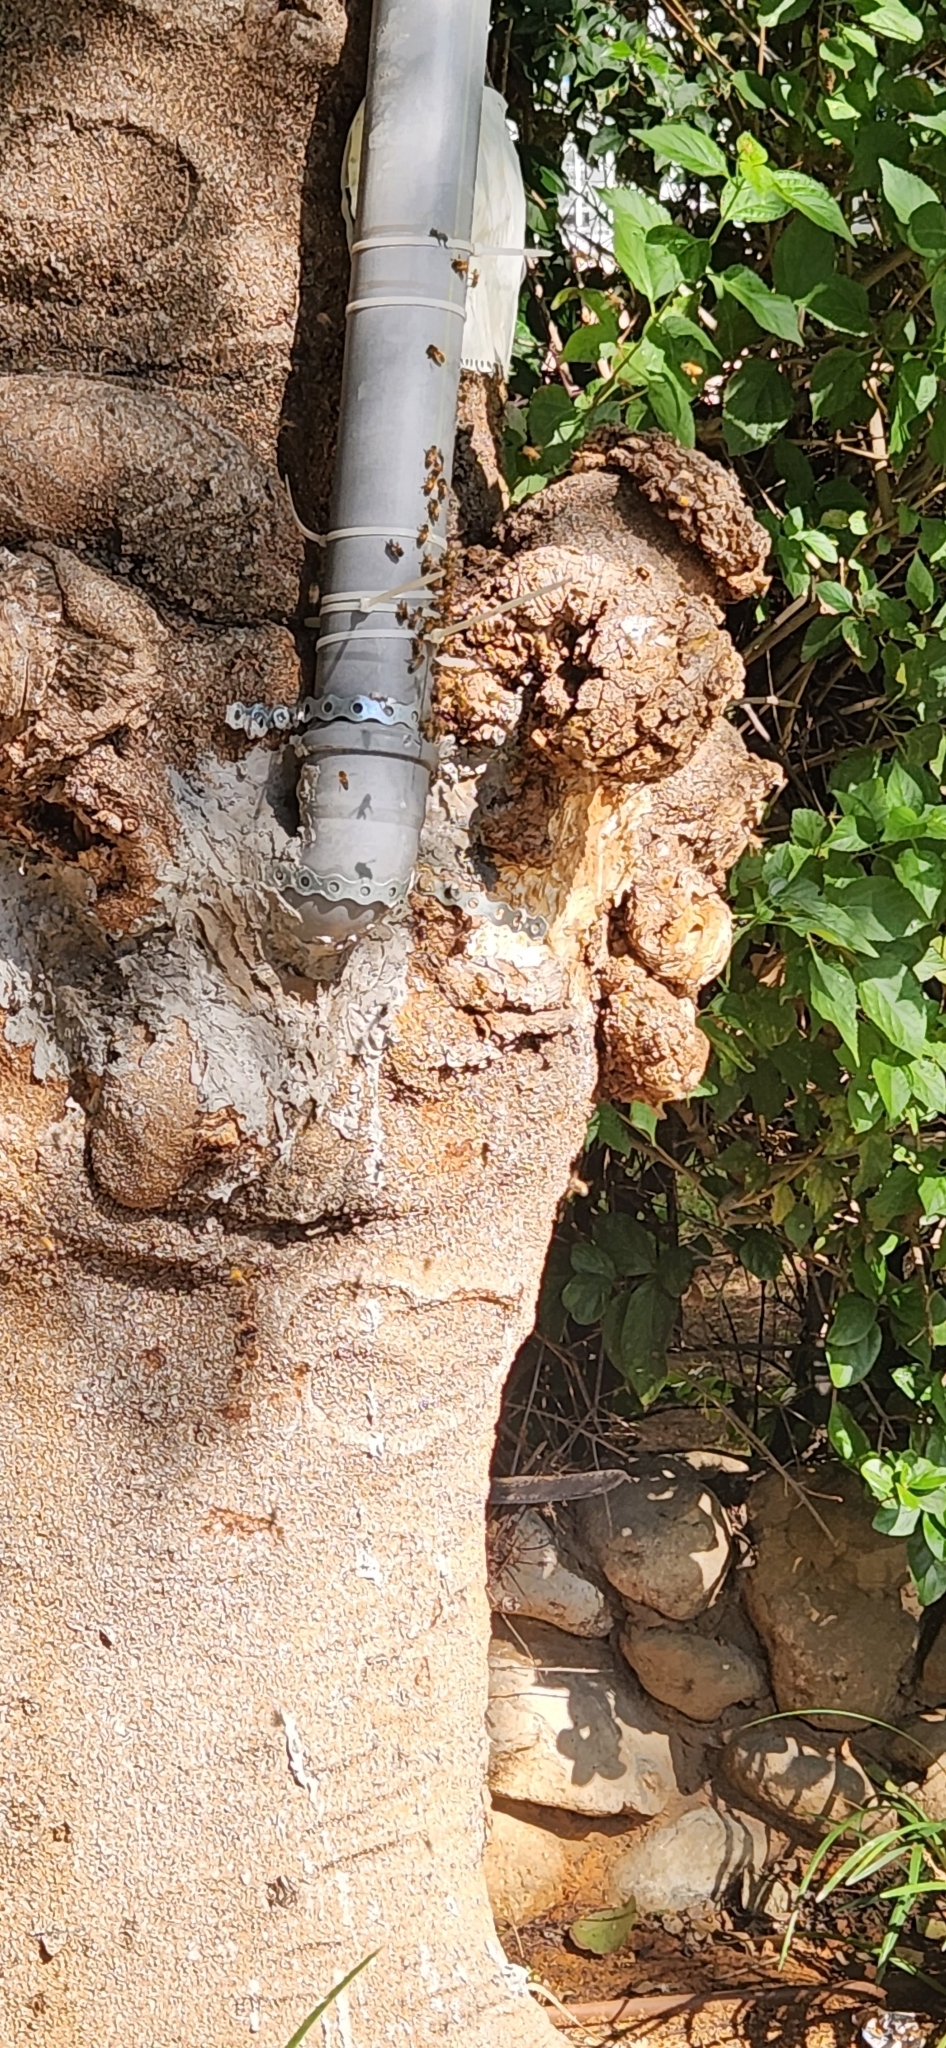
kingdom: Animalia
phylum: Arthropoda
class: Insecta
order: Hymenoptera
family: Apidae
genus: Apis
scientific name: Apis mellifera
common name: Honey bee
